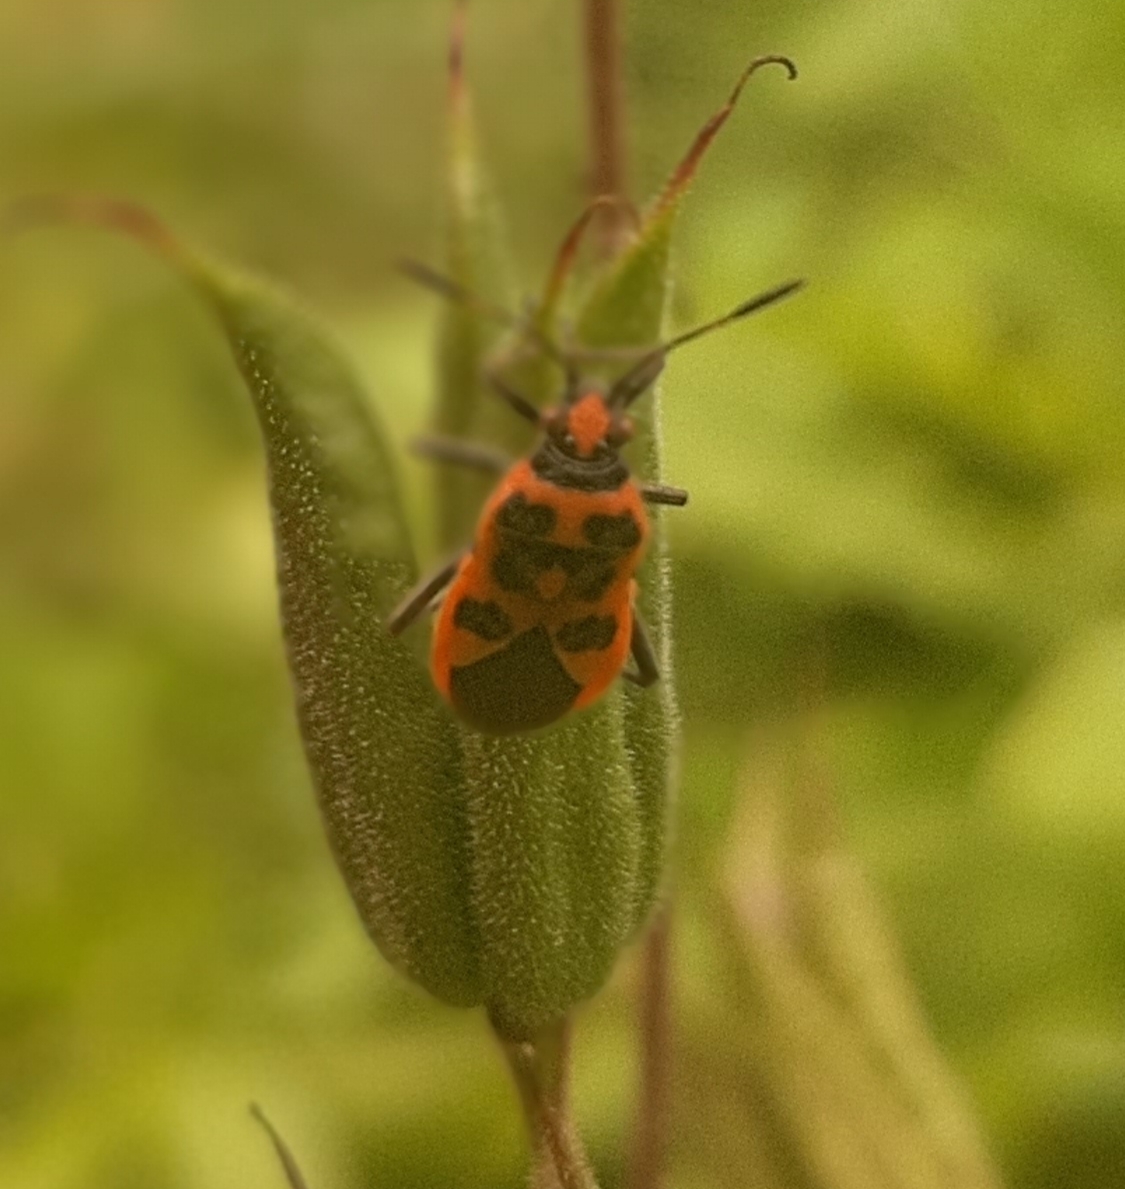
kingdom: Animalia
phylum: Arthropoda
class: Insecta
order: Hemiptera
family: Rhopalidae
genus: Corizus
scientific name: Corizus hyoscyami
